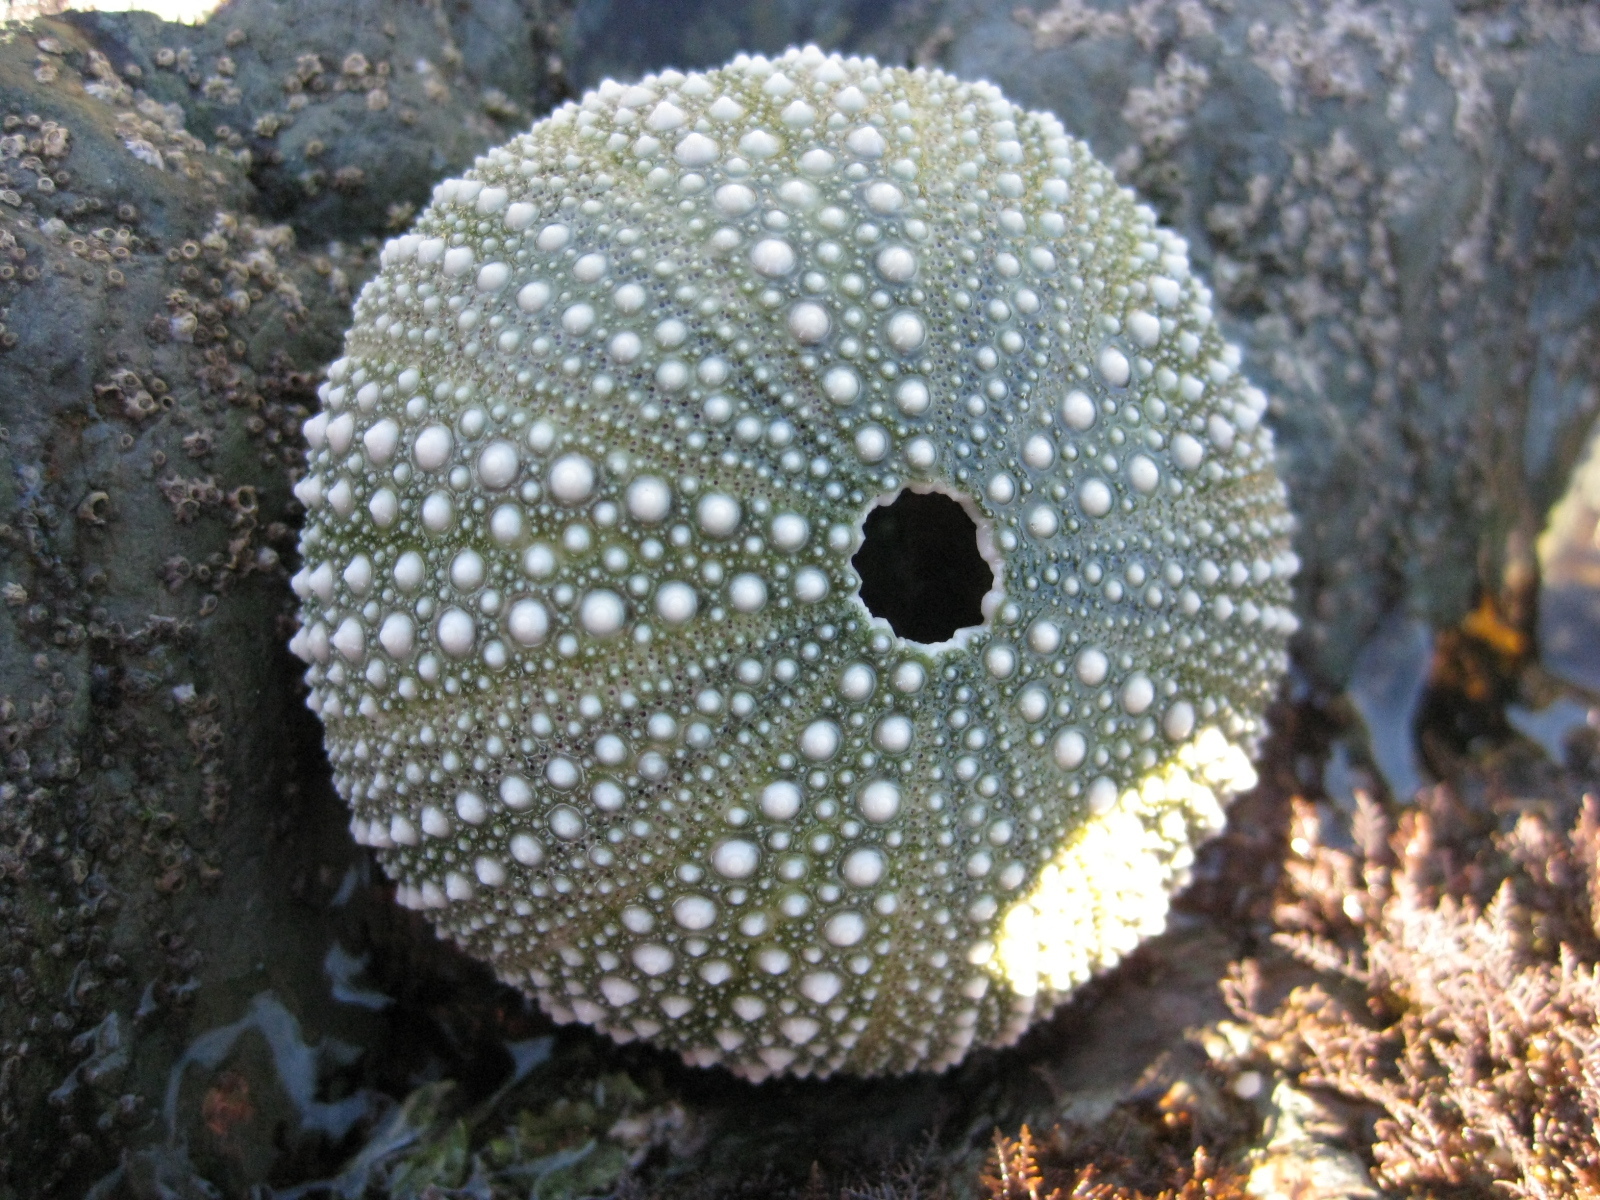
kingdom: Animalia
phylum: Echinodermata
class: Echinoidea
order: Camarodonta
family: Echinometridae
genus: Evechinus
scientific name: Evechinus chloroticus
